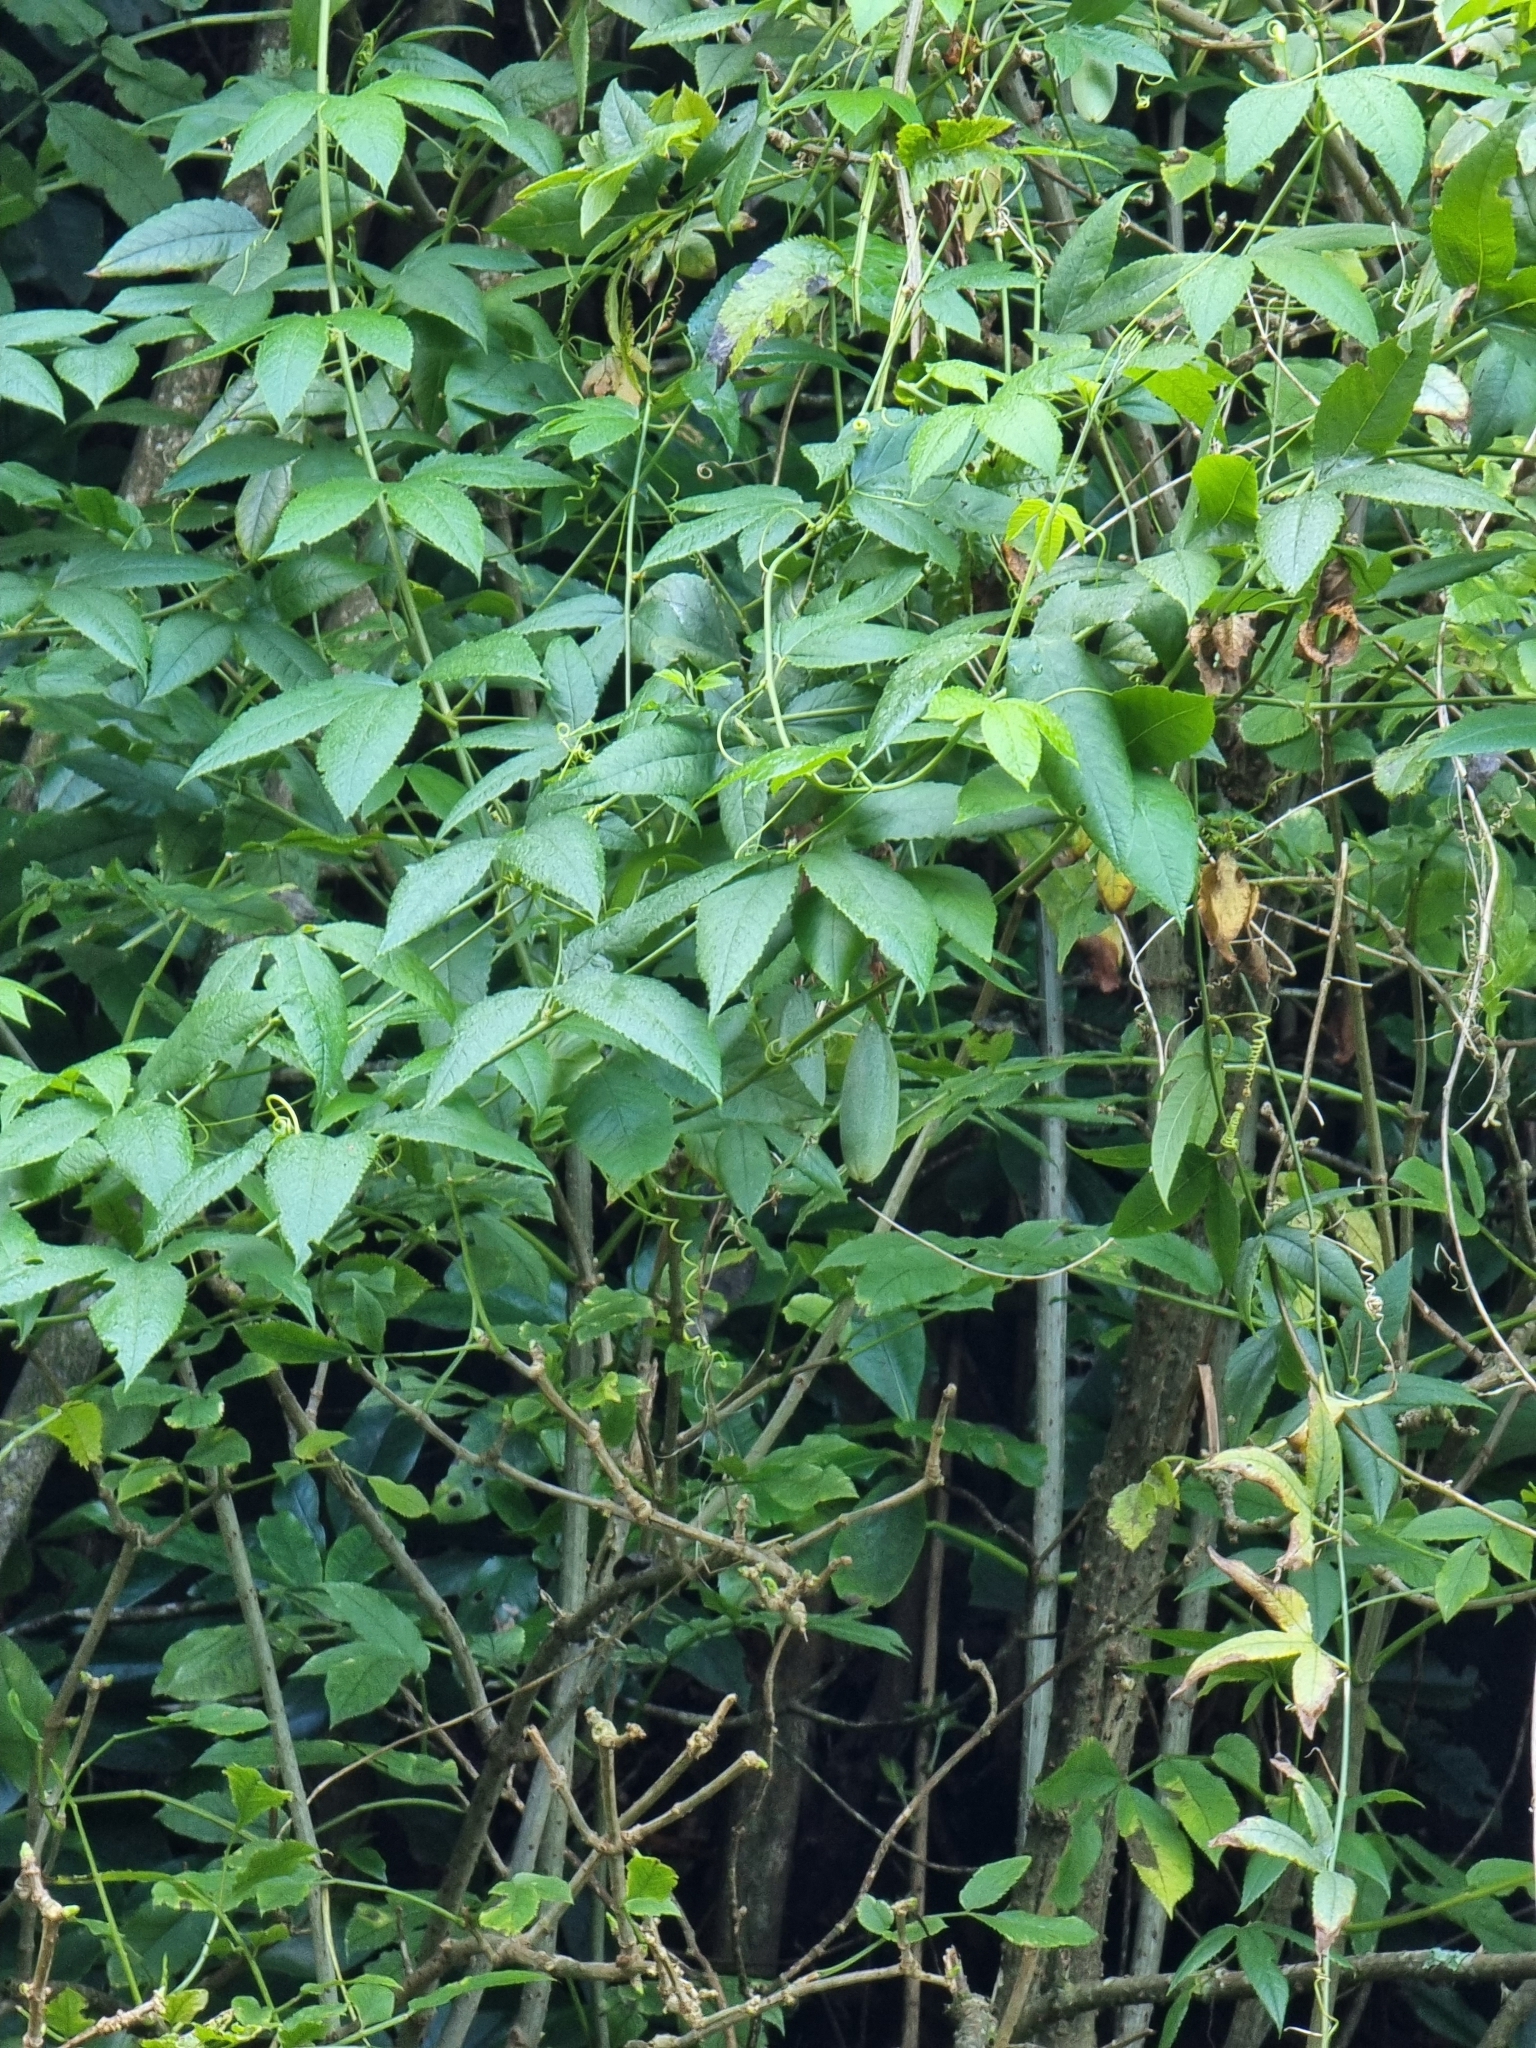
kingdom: Plantae
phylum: Tracheophyta
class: Magnoliopsida
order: Malpighiales
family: Passifloraceae
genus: Passiflora
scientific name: Passiflora tarminiana
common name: Banana poka
